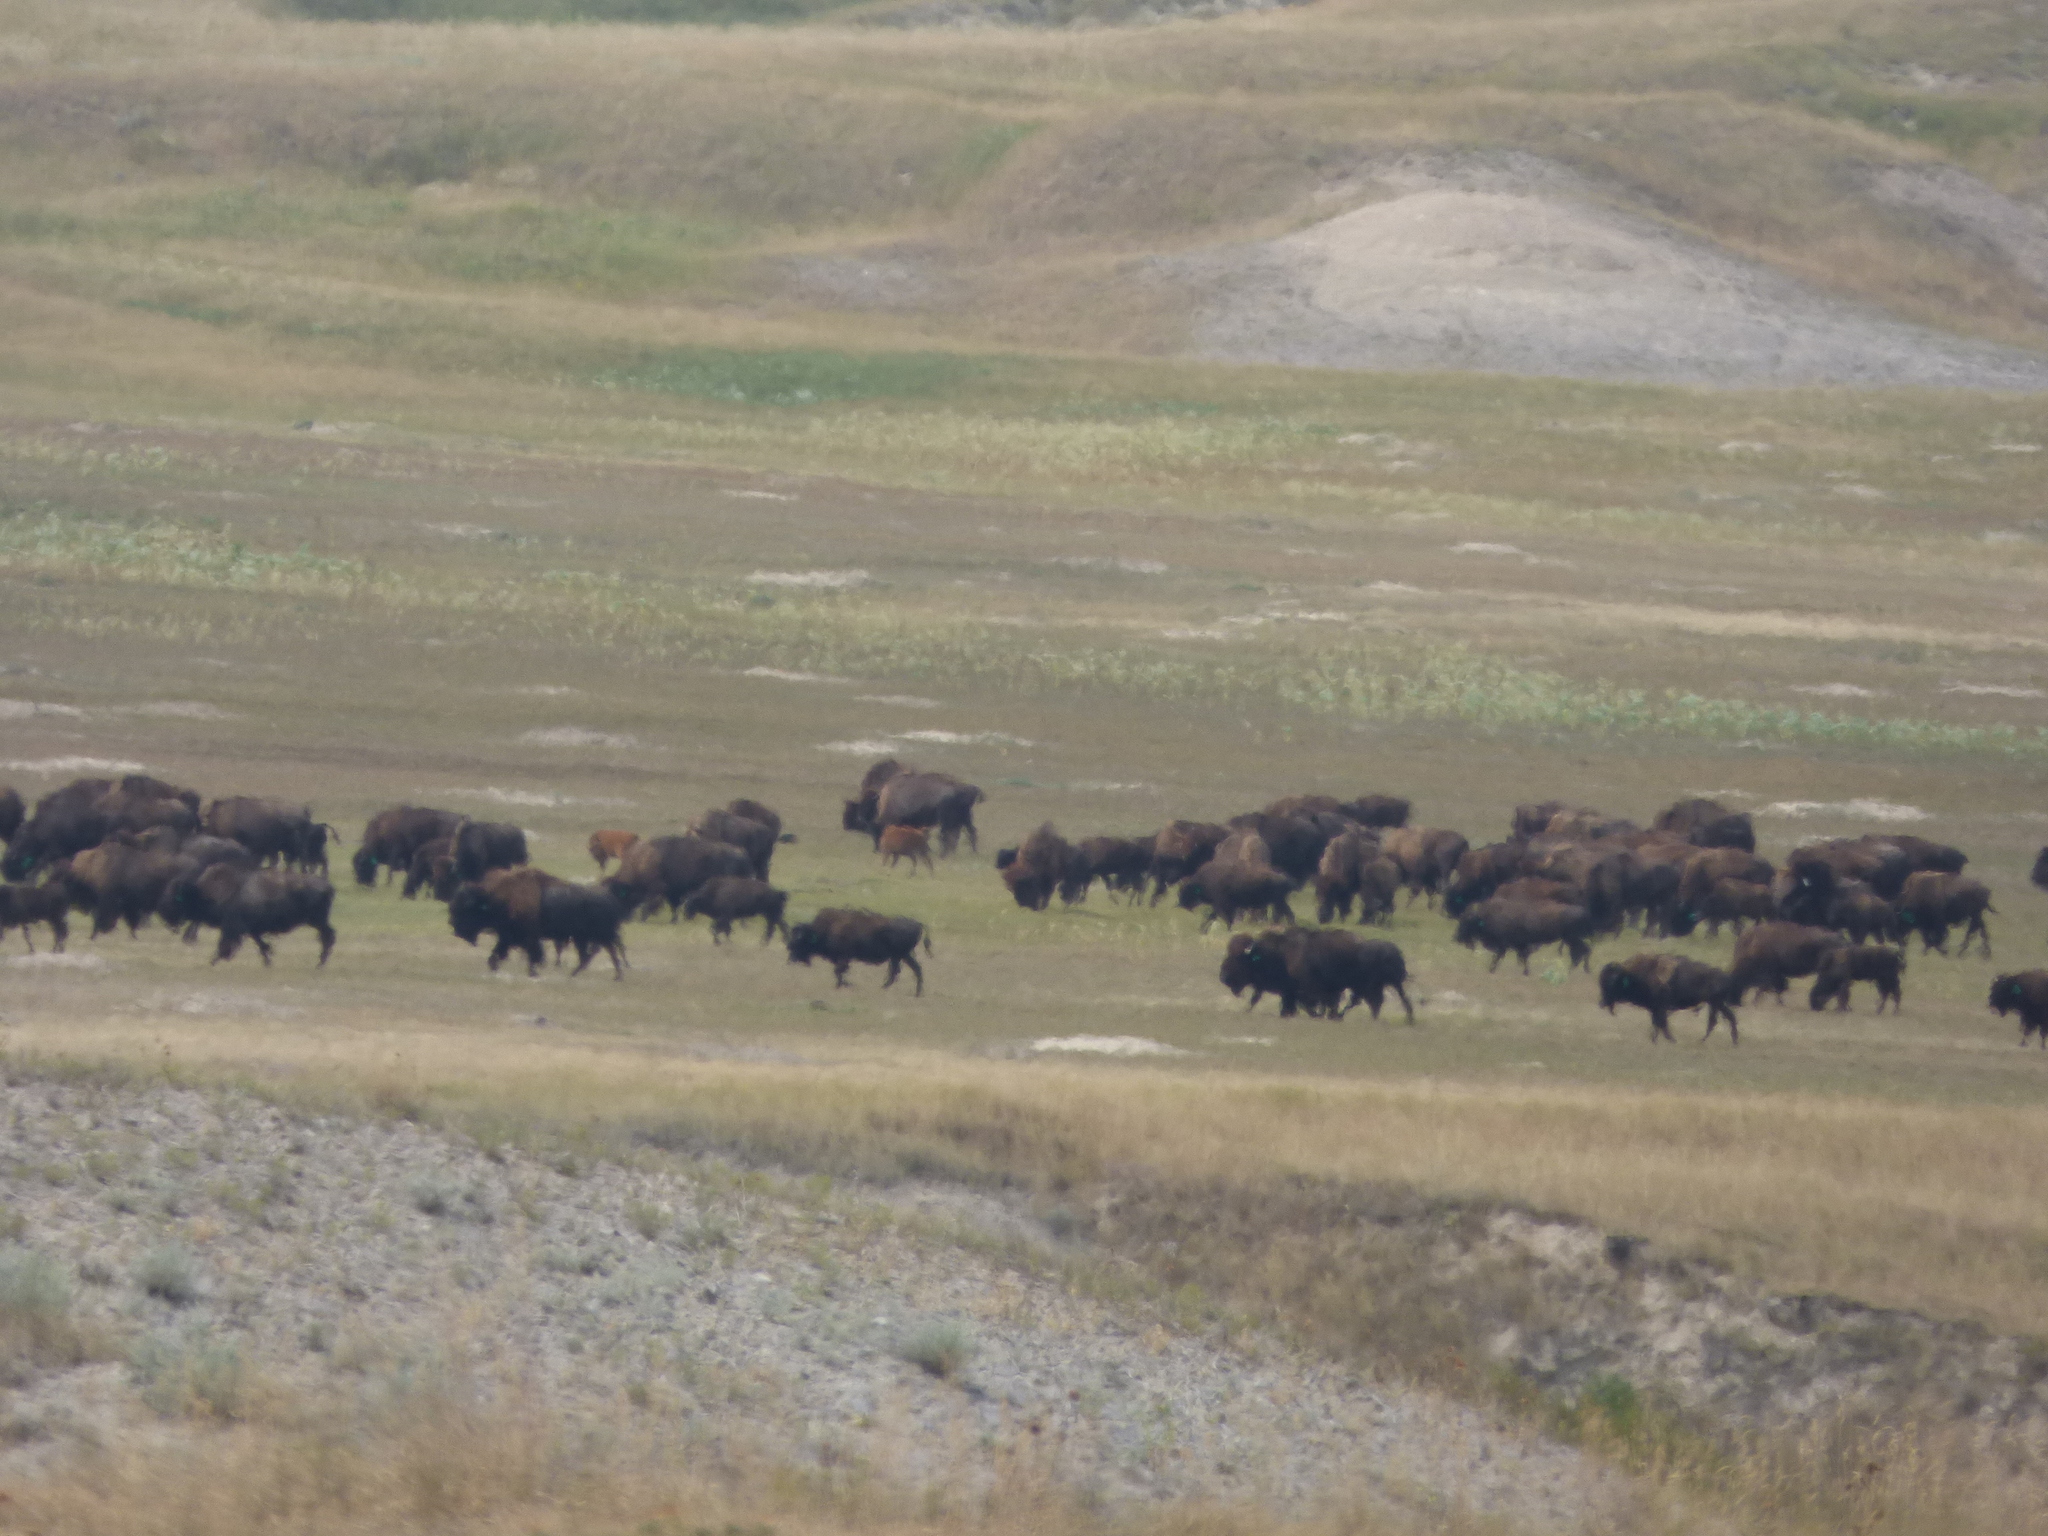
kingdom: Animalia
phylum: Chordata
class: Mammalia
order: Artiodactyla
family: Bovidae
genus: Bison
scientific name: Bison bison
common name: American bison
